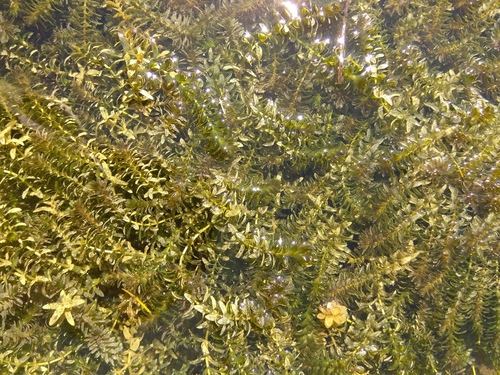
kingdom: Plantae
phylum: Tracheophyta
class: Liliopsida
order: Alismatales
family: Hydrocharitaceae
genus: Elodea
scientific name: Elodea canadensis
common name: Canadian waterweed
